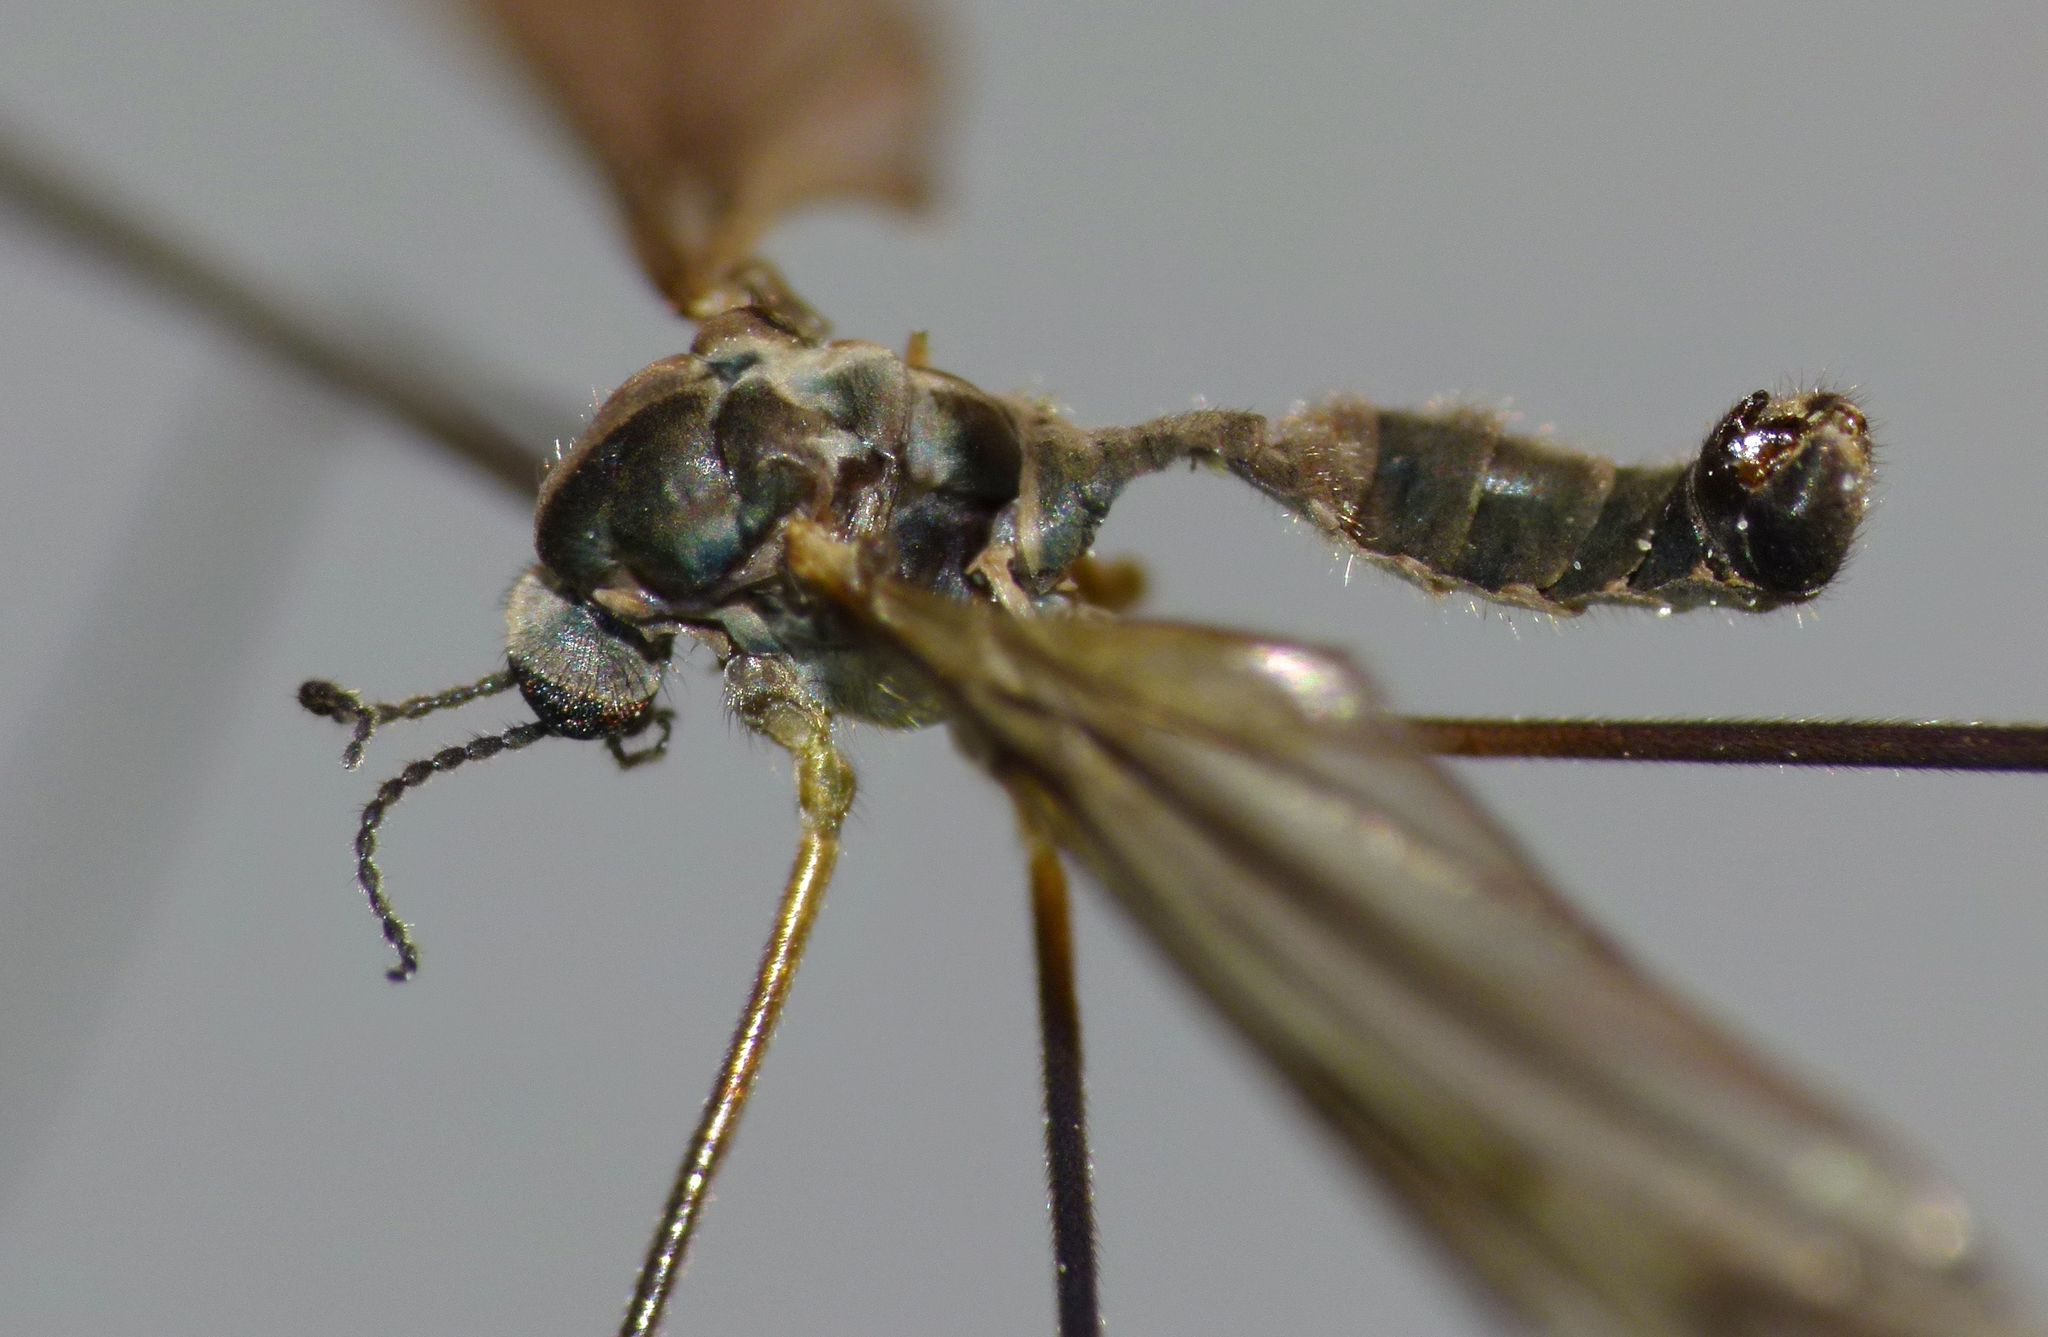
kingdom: Animalia
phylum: Arthropoda
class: Insecta
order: Diptera
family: Limoniidae
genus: Aphrophila
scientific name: Aphrophila neozelandica
